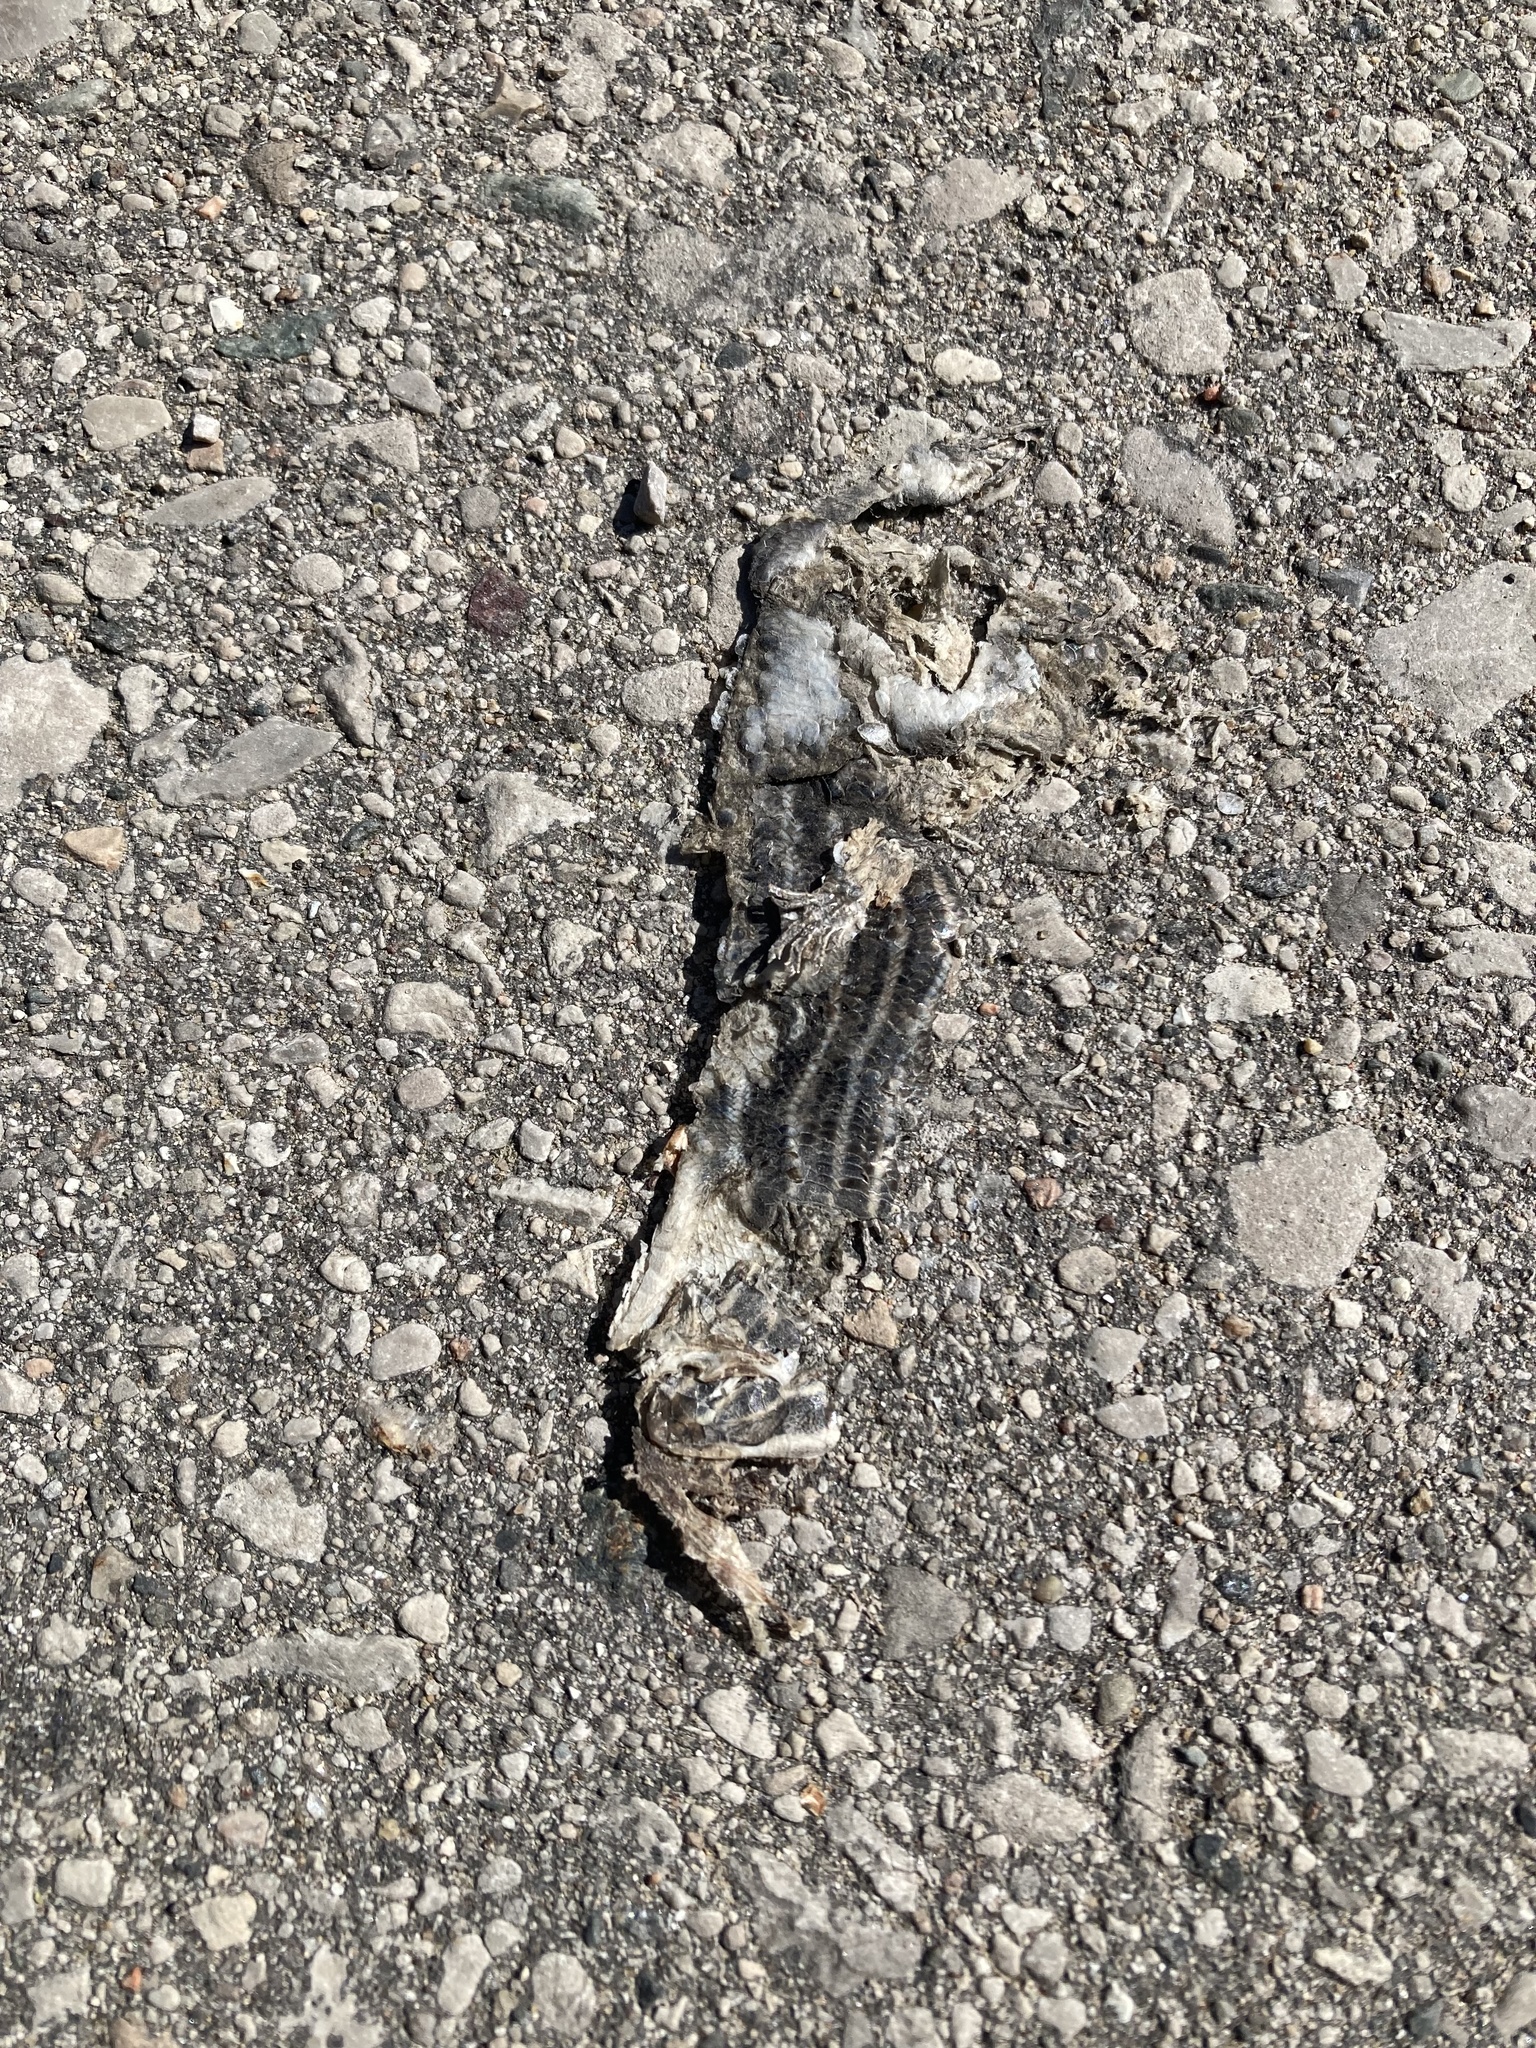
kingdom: Animalia
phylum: Chordata
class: Squamata
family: Scincidae
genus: Plestiodon
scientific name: Plestiodon fasciatus
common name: Five-lined skink
